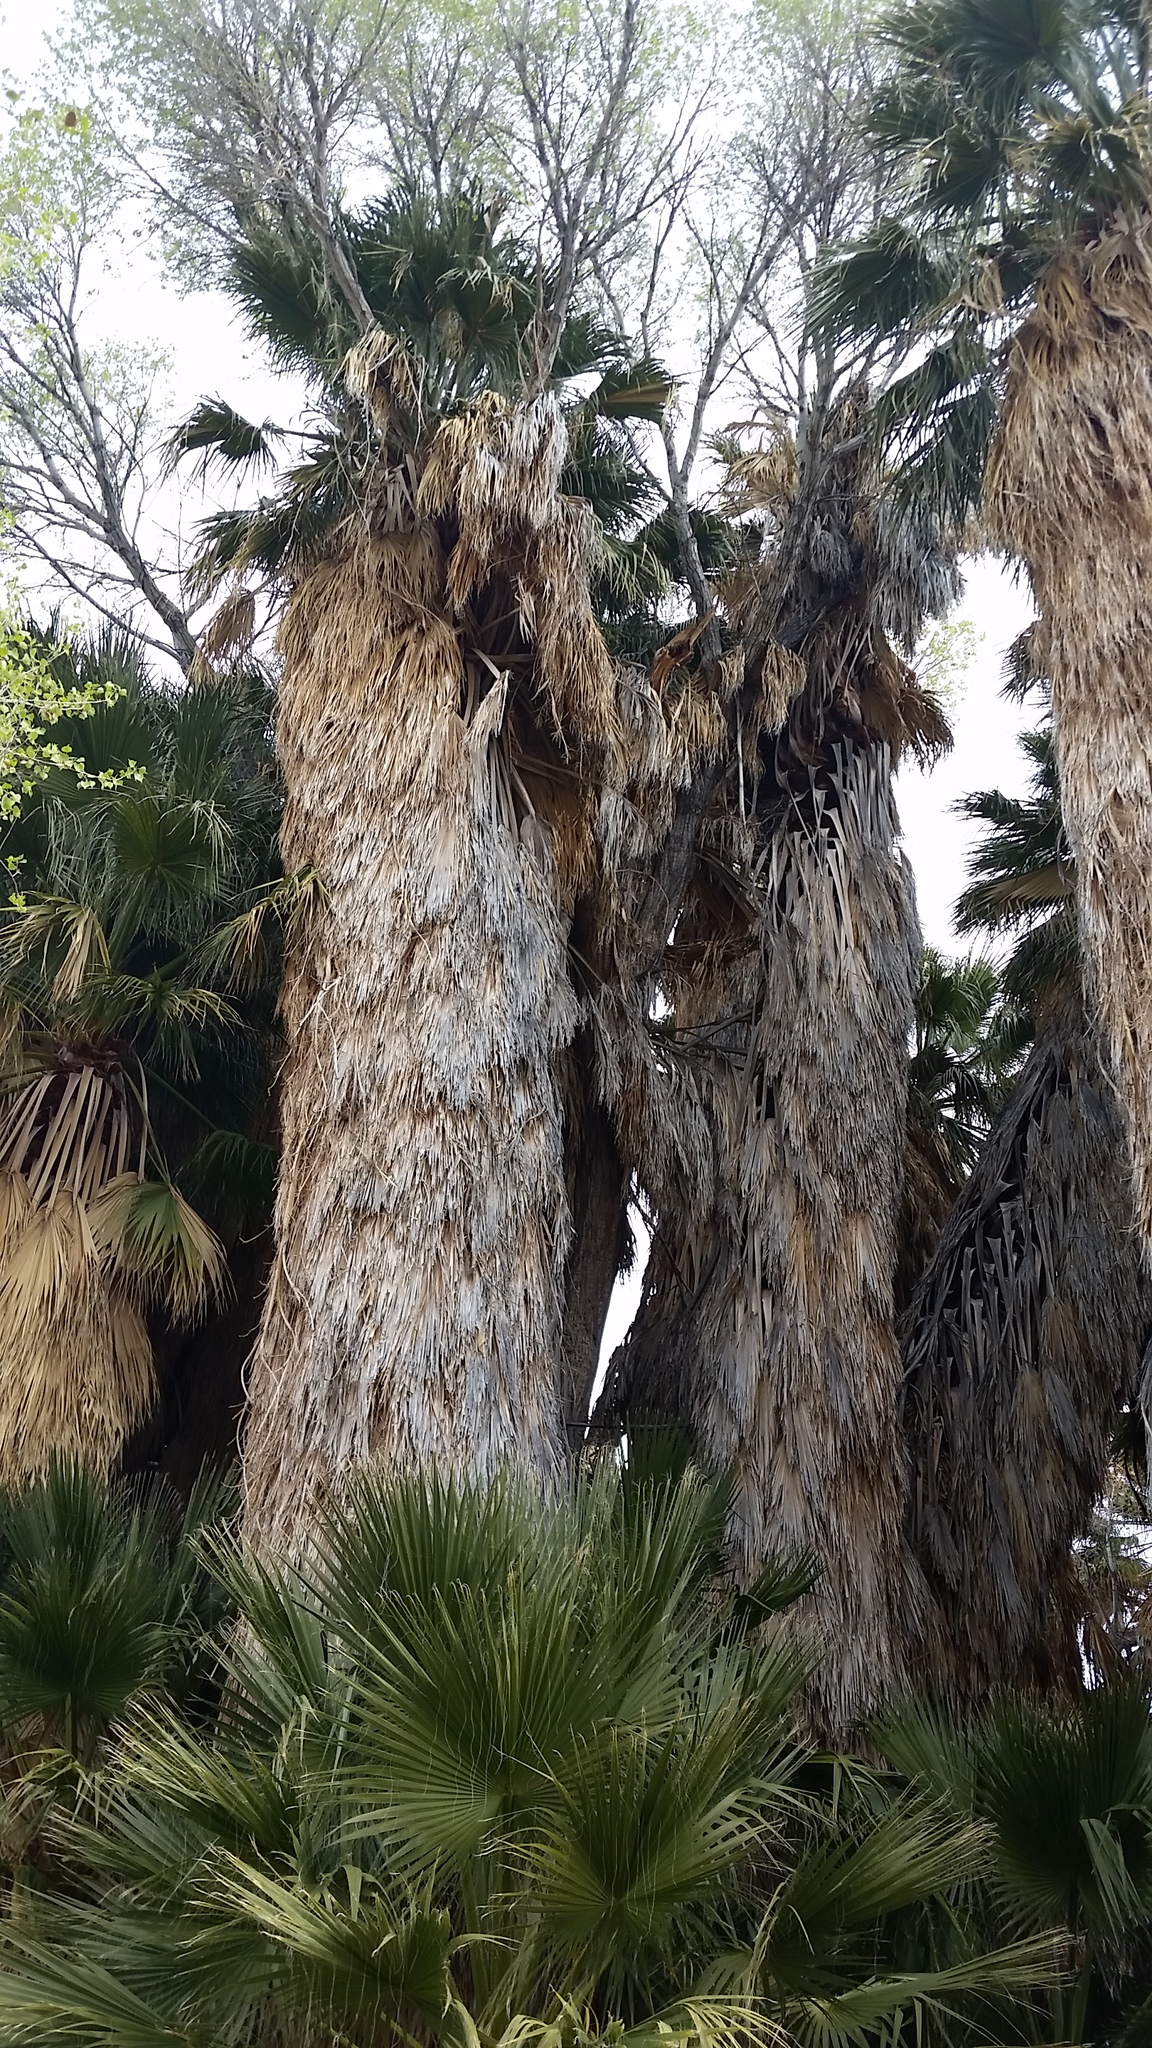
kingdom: Plantae
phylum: Tracheophyta
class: Liliopsida
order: Arecales
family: Arecaceae
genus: Washingtonia
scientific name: Washingtonia filifera
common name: California fan palm
